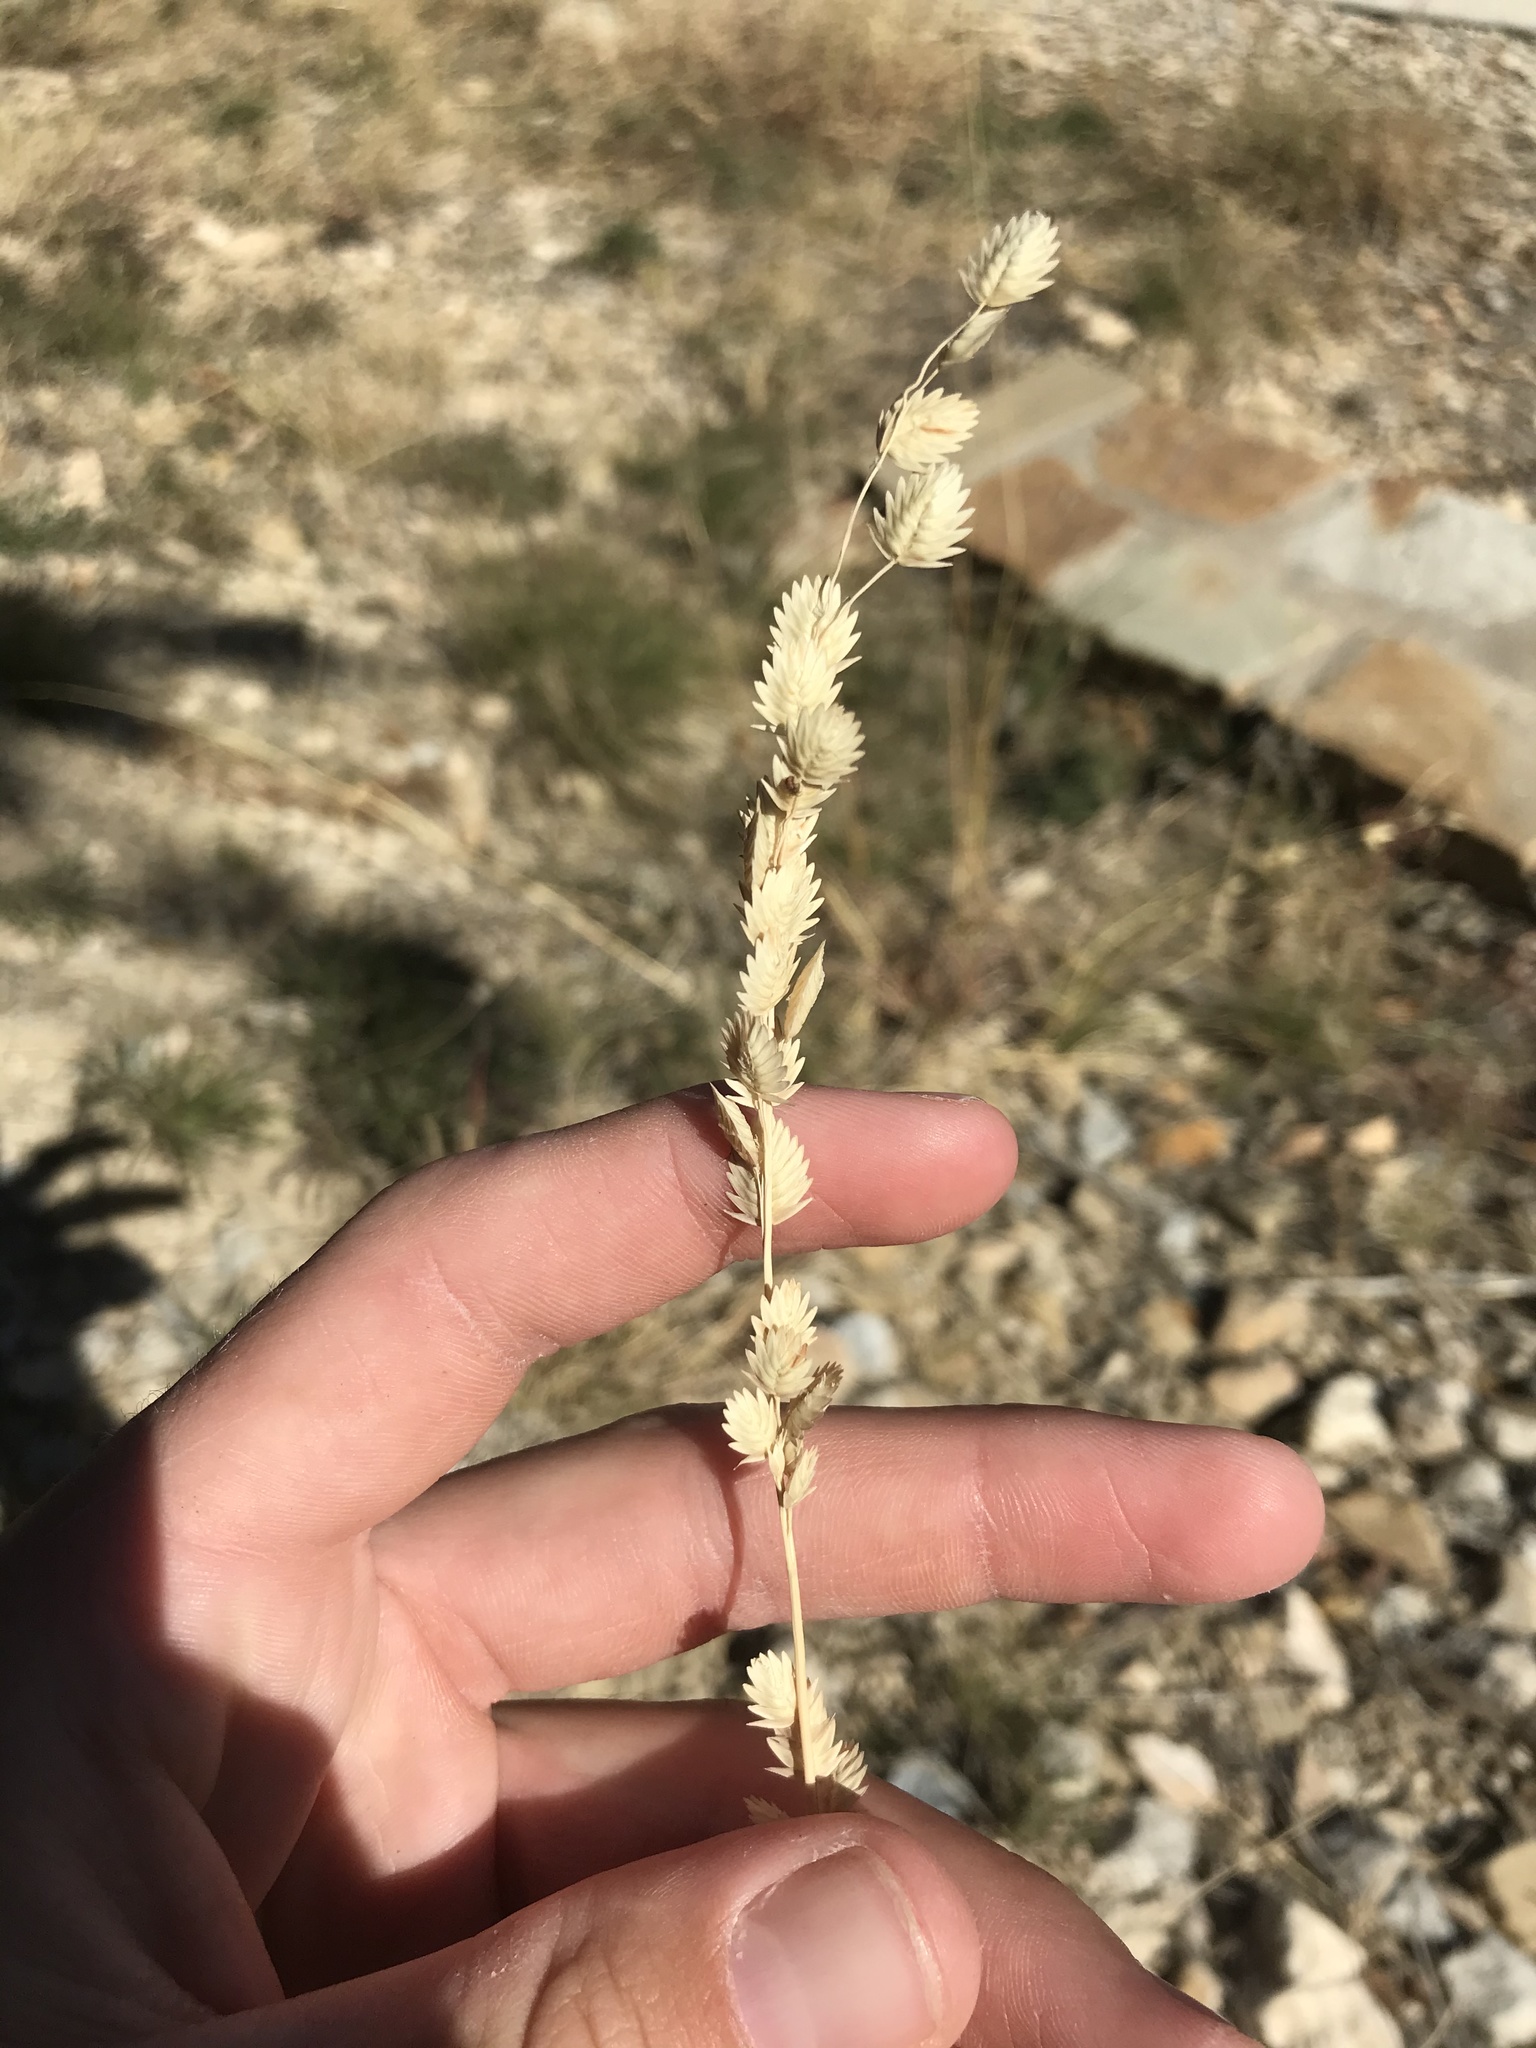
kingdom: Plantae
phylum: Tracheophyta
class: Liliopsida
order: Poales
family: Poaceae
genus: Eragrostis
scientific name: Eragrostis superba
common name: Wilman lovegrass
